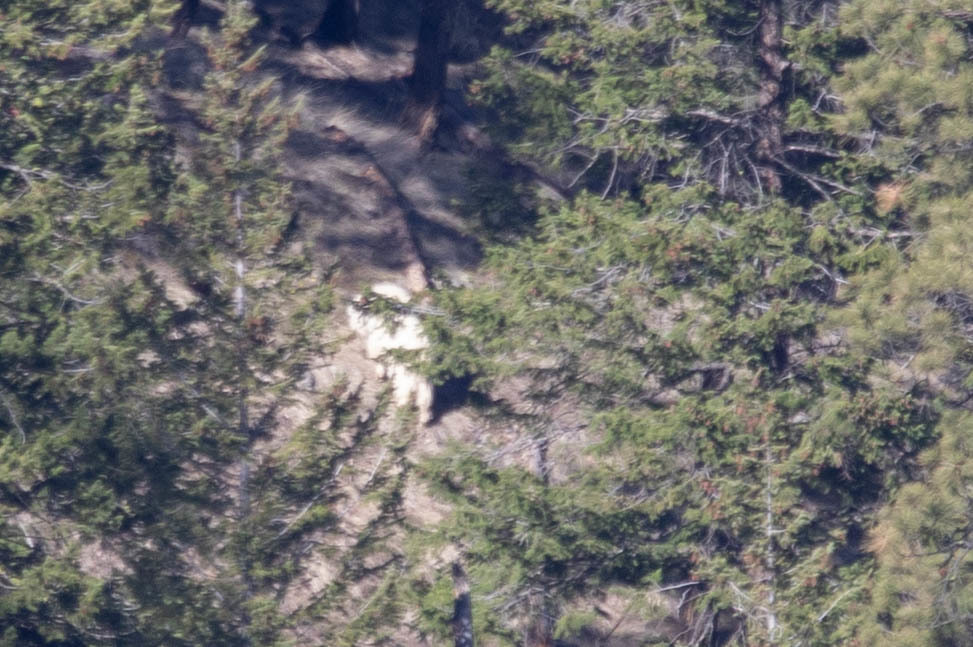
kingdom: Animalia
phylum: Chordata
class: Mammalia
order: Artiodactyla
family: Bovidae
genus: Oreamnos
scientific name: Oreamnos americanus
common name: Mountain goat
